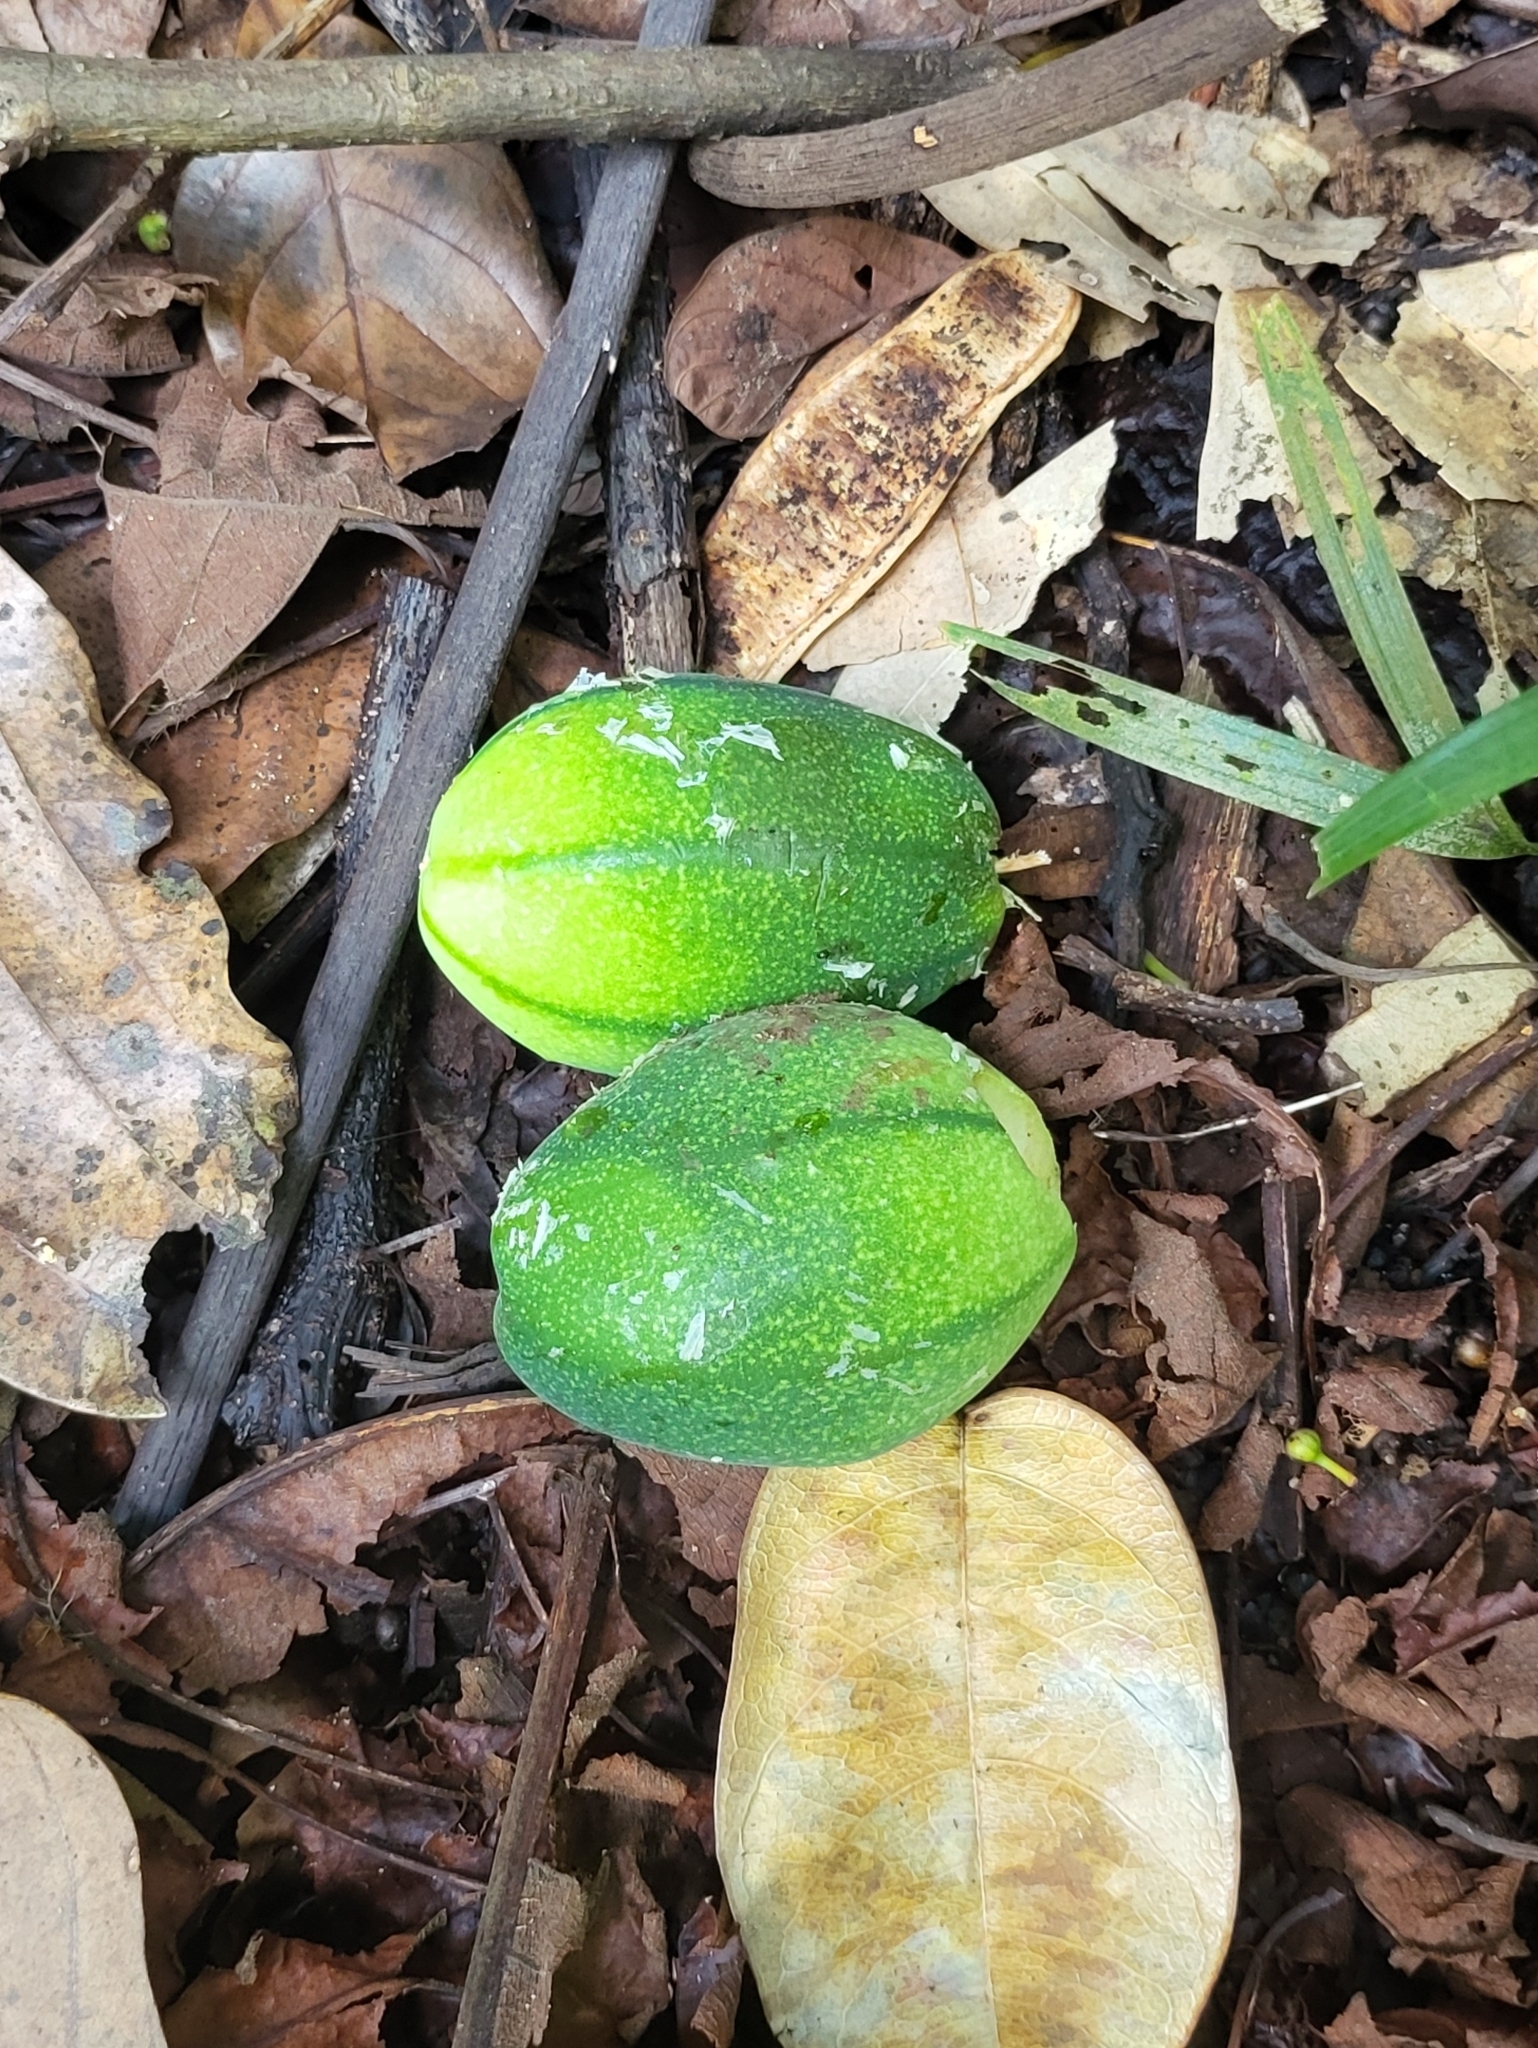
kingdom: Plantae
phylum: Tracheophyta
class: Magnoliopsida
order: Malpighiales
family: Passifloraceae
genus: Passiflora
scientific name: Passiflora laurifolia
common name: Bell apple
